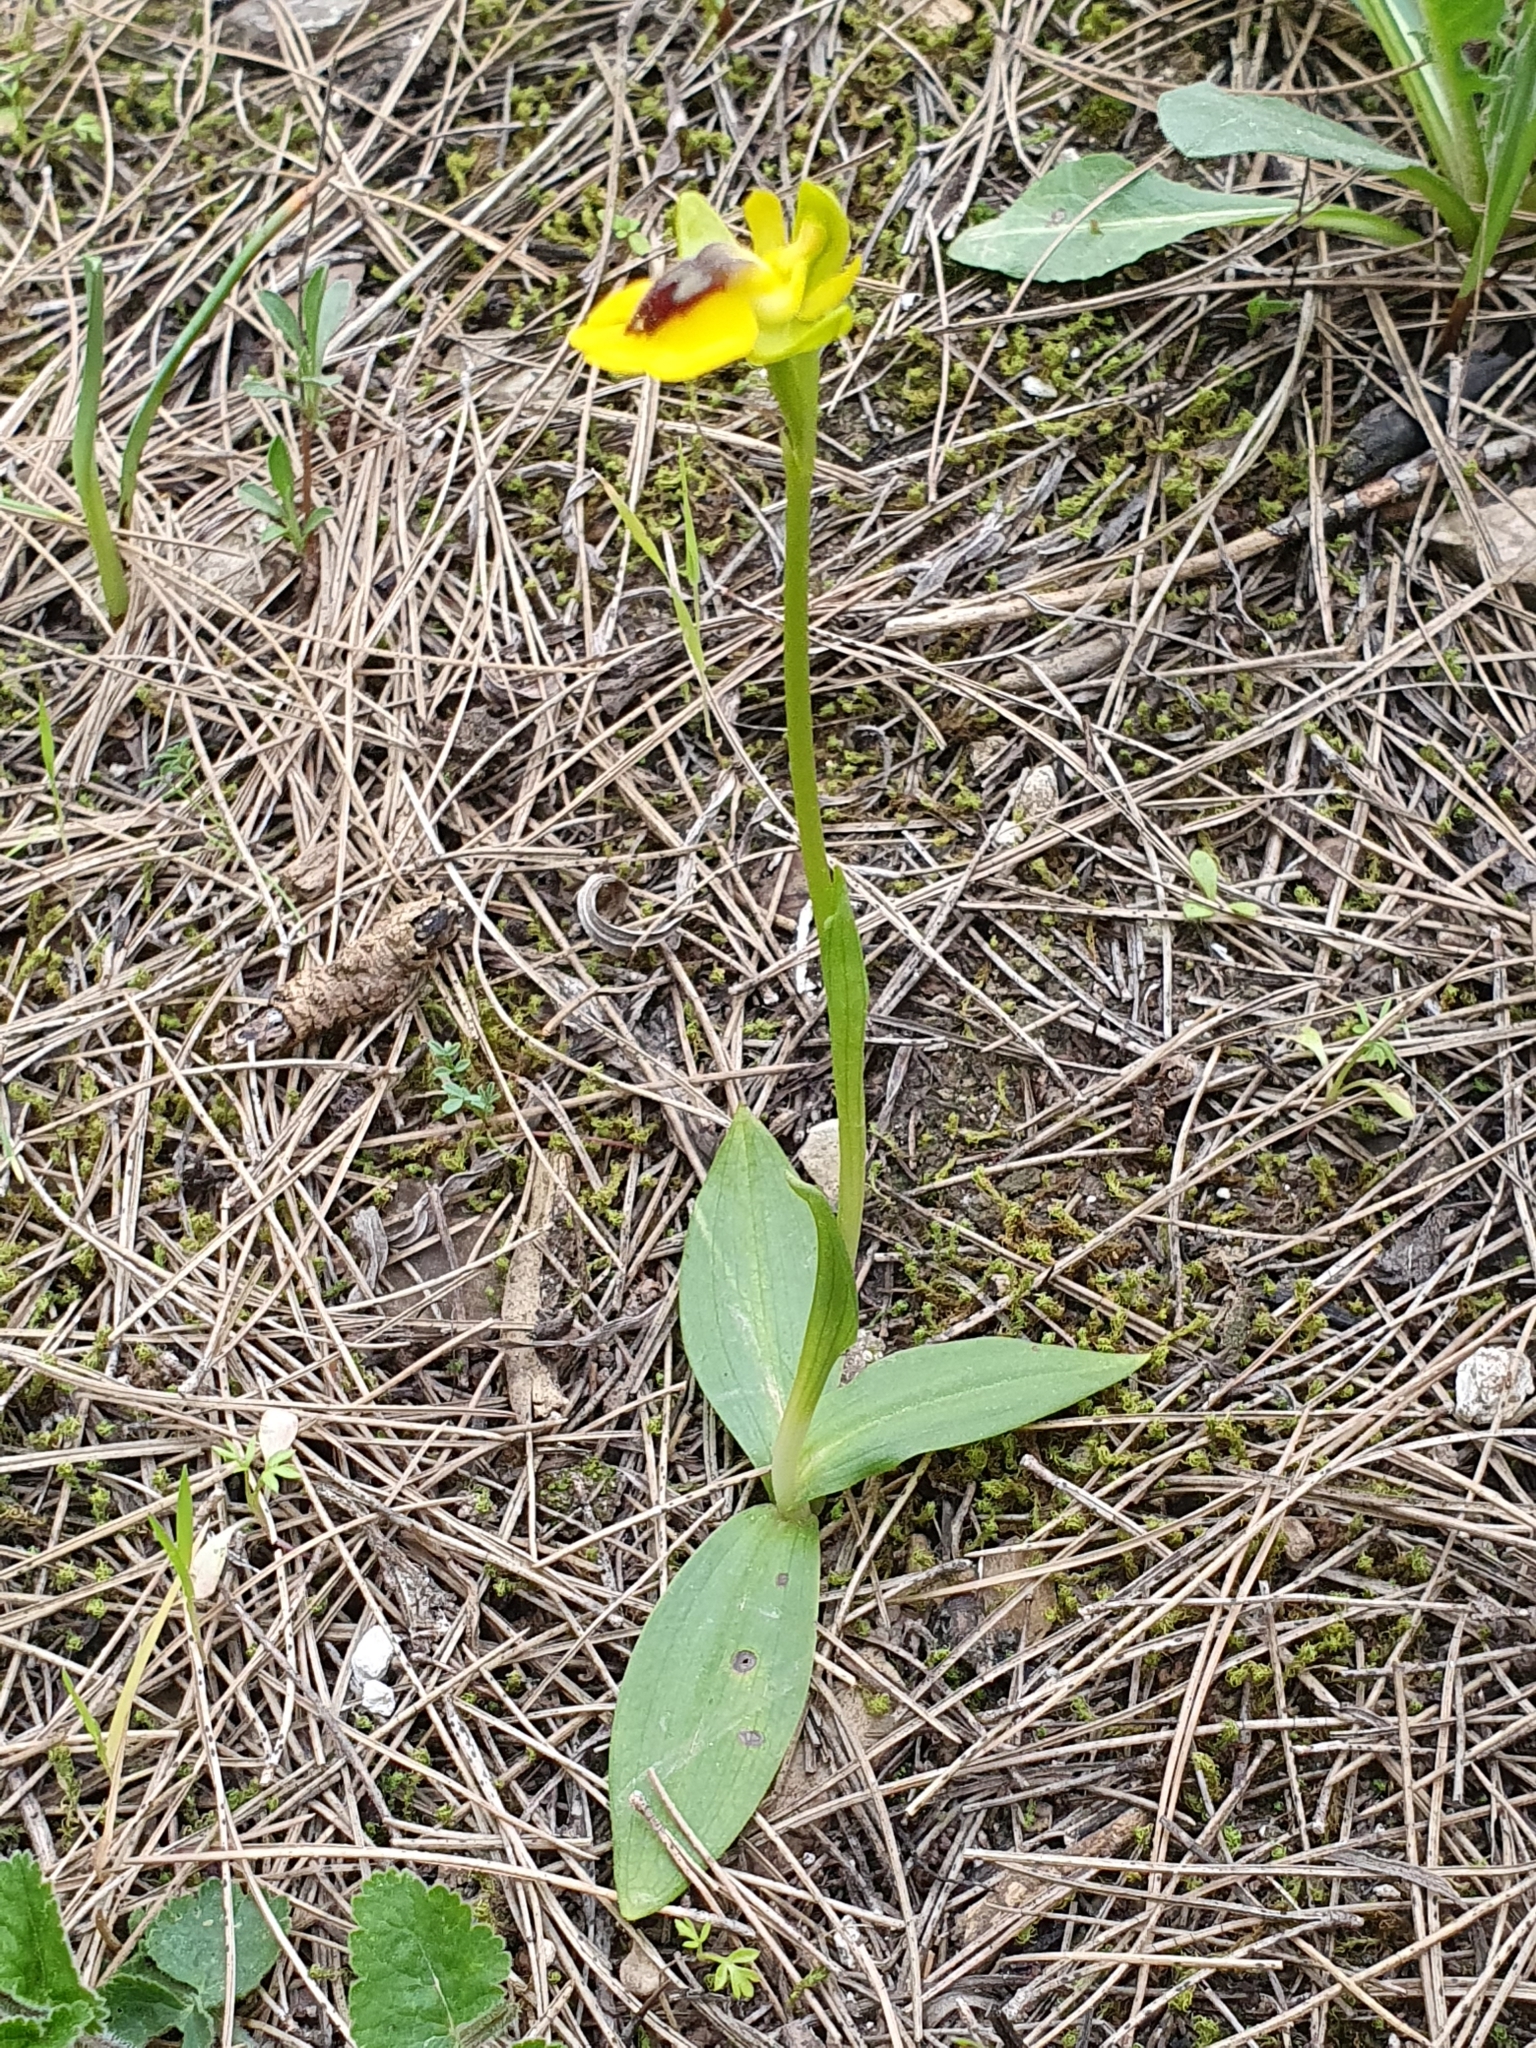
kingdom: Plantae
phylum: Tracheophyta
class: Liliopsida
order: Asparagales
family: Orchidaceae
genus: Ophrys
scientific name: Ophrys lutea
